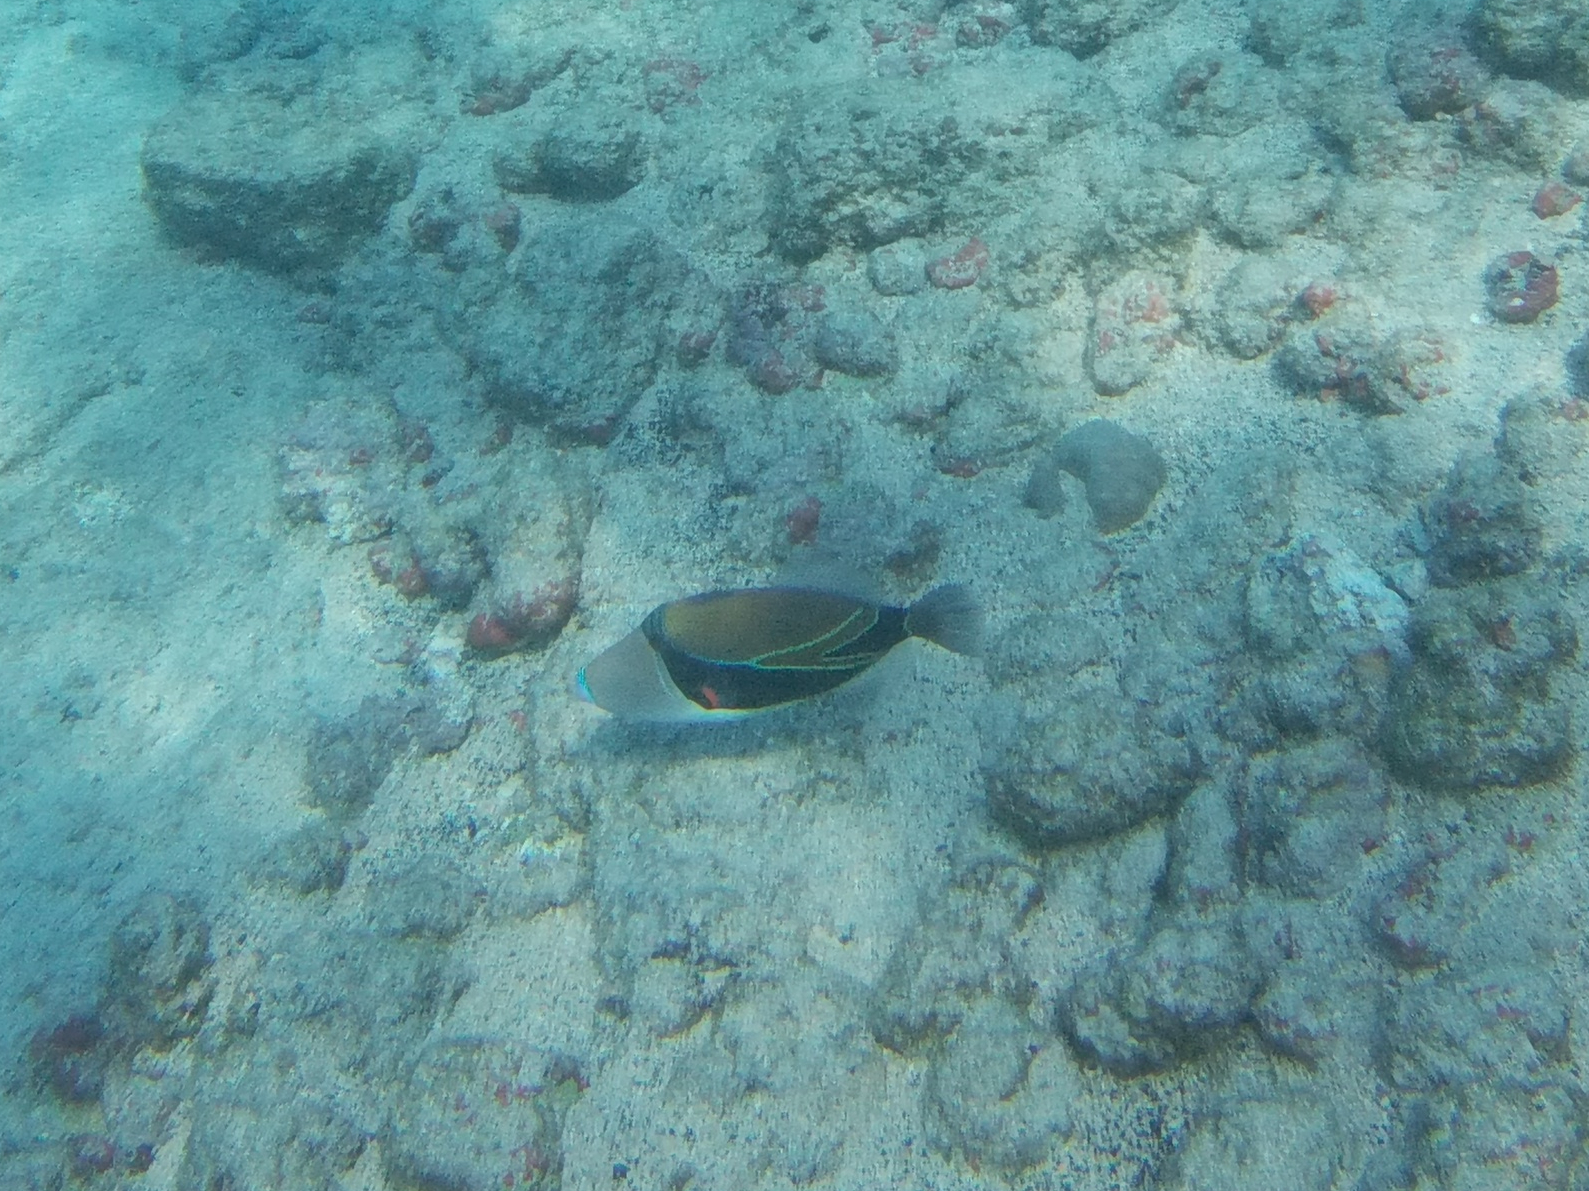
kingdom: Animalia
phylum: Chordata
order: Tetraodontiformes
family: Balistidae
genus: Rhinecanthus
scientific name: Rhinecanthus rectangulus
